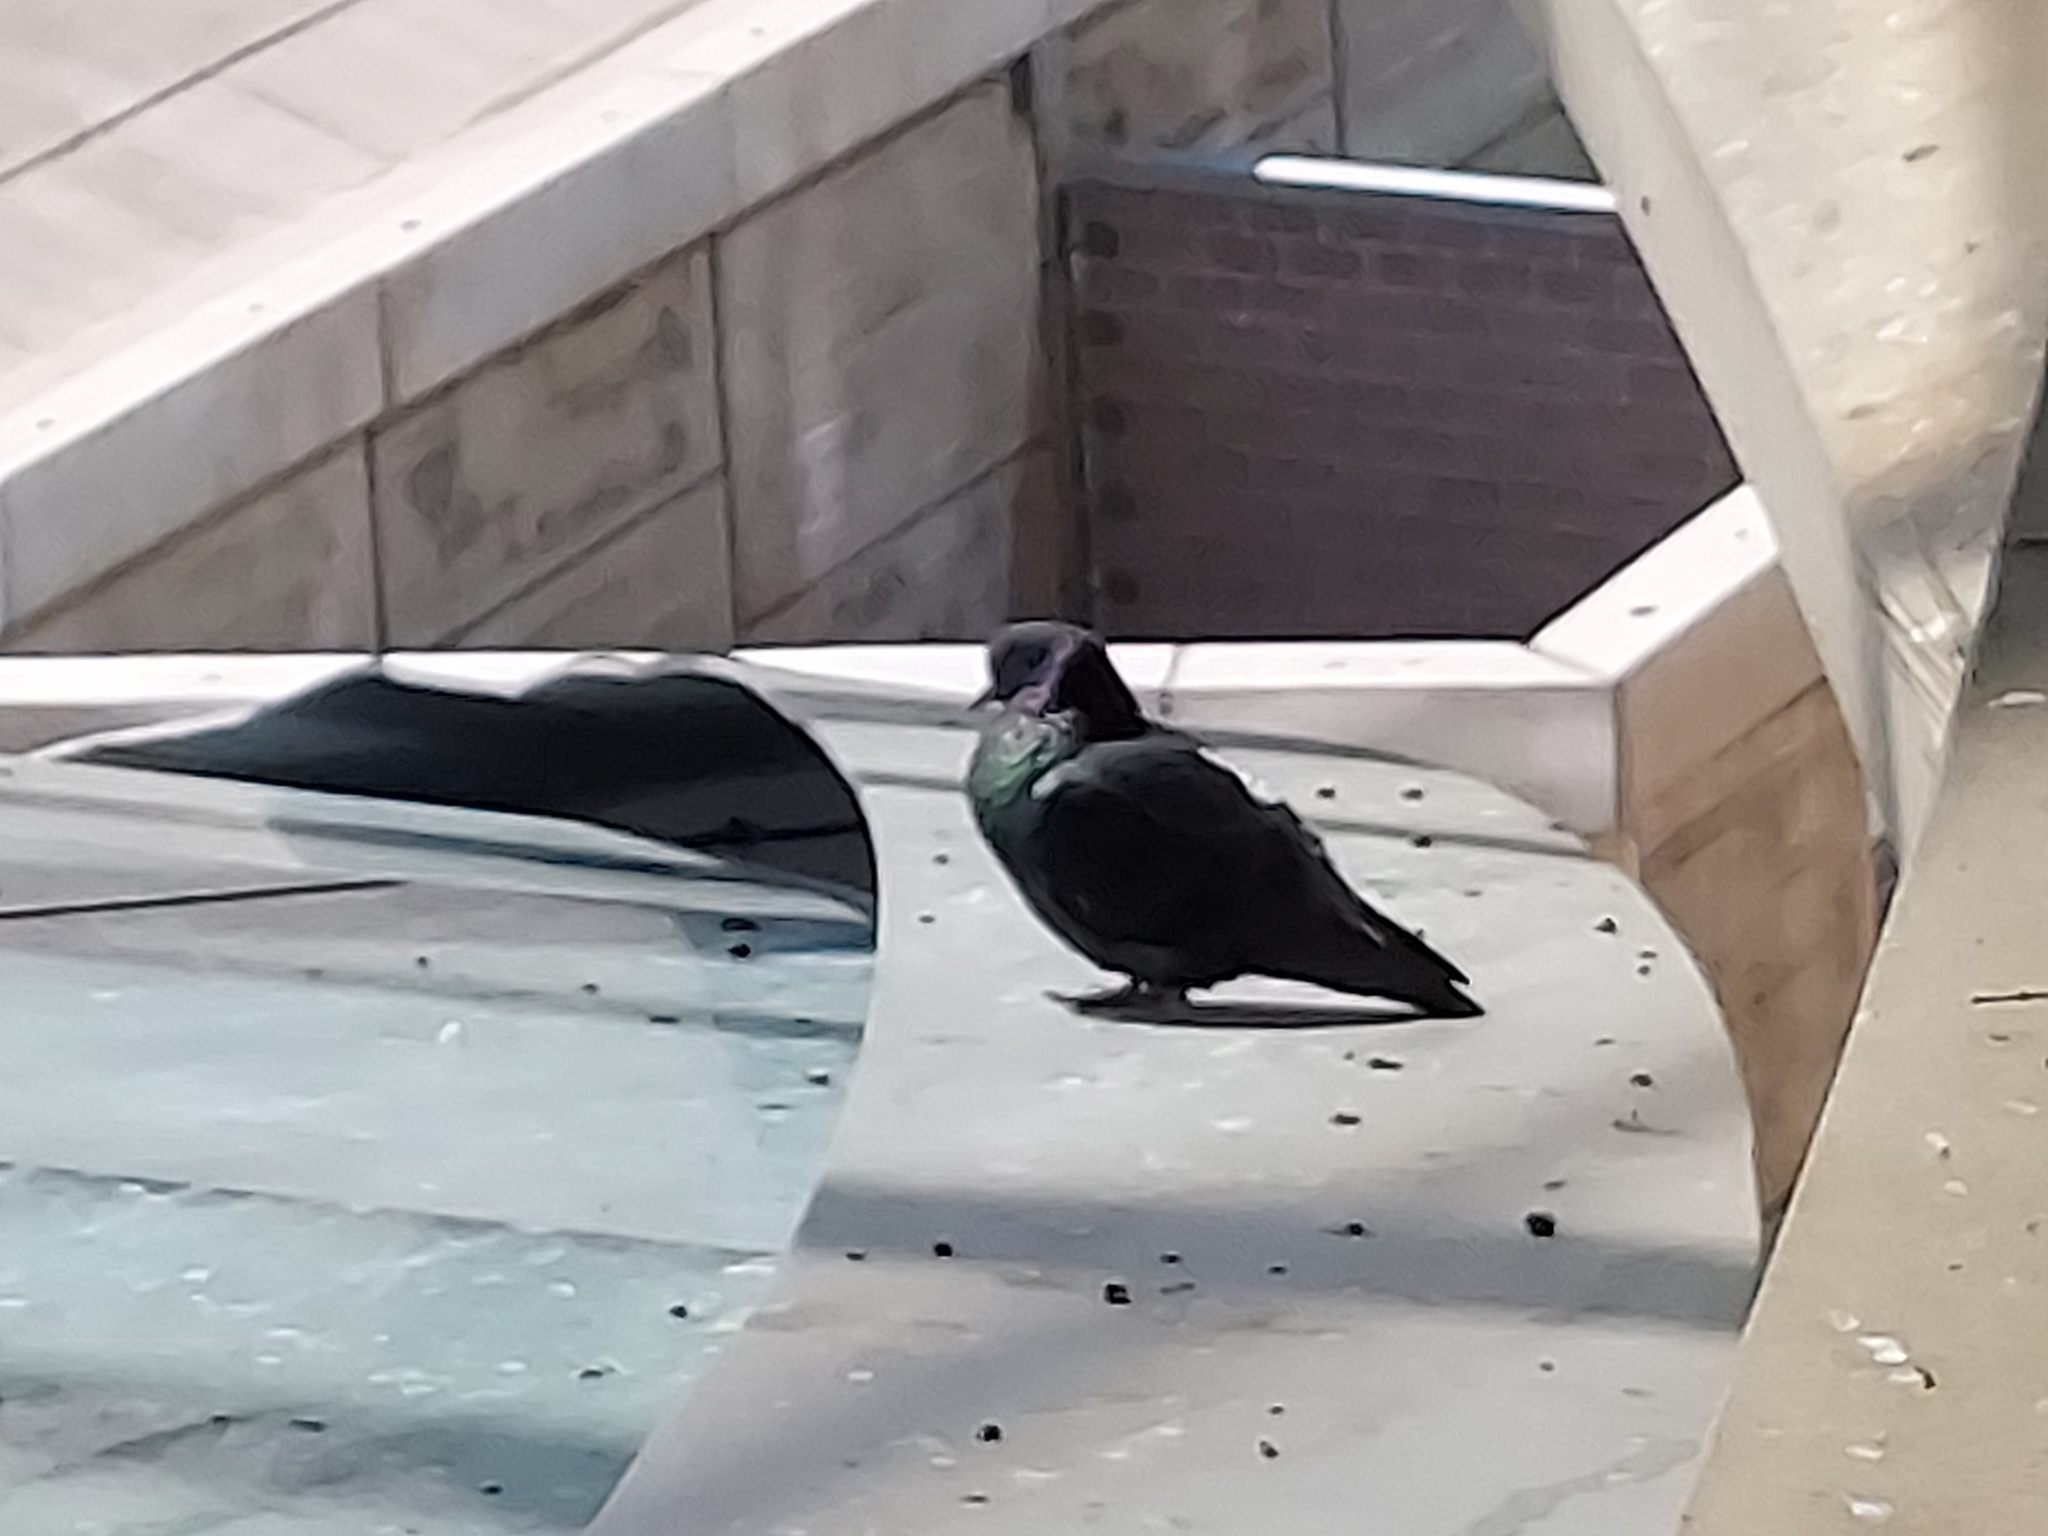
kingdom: Animalia
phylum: Chordata
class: Aves
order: Columbiformes
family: Columbidae
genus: Columba
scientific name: Columba livia
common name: Rock pigeon
